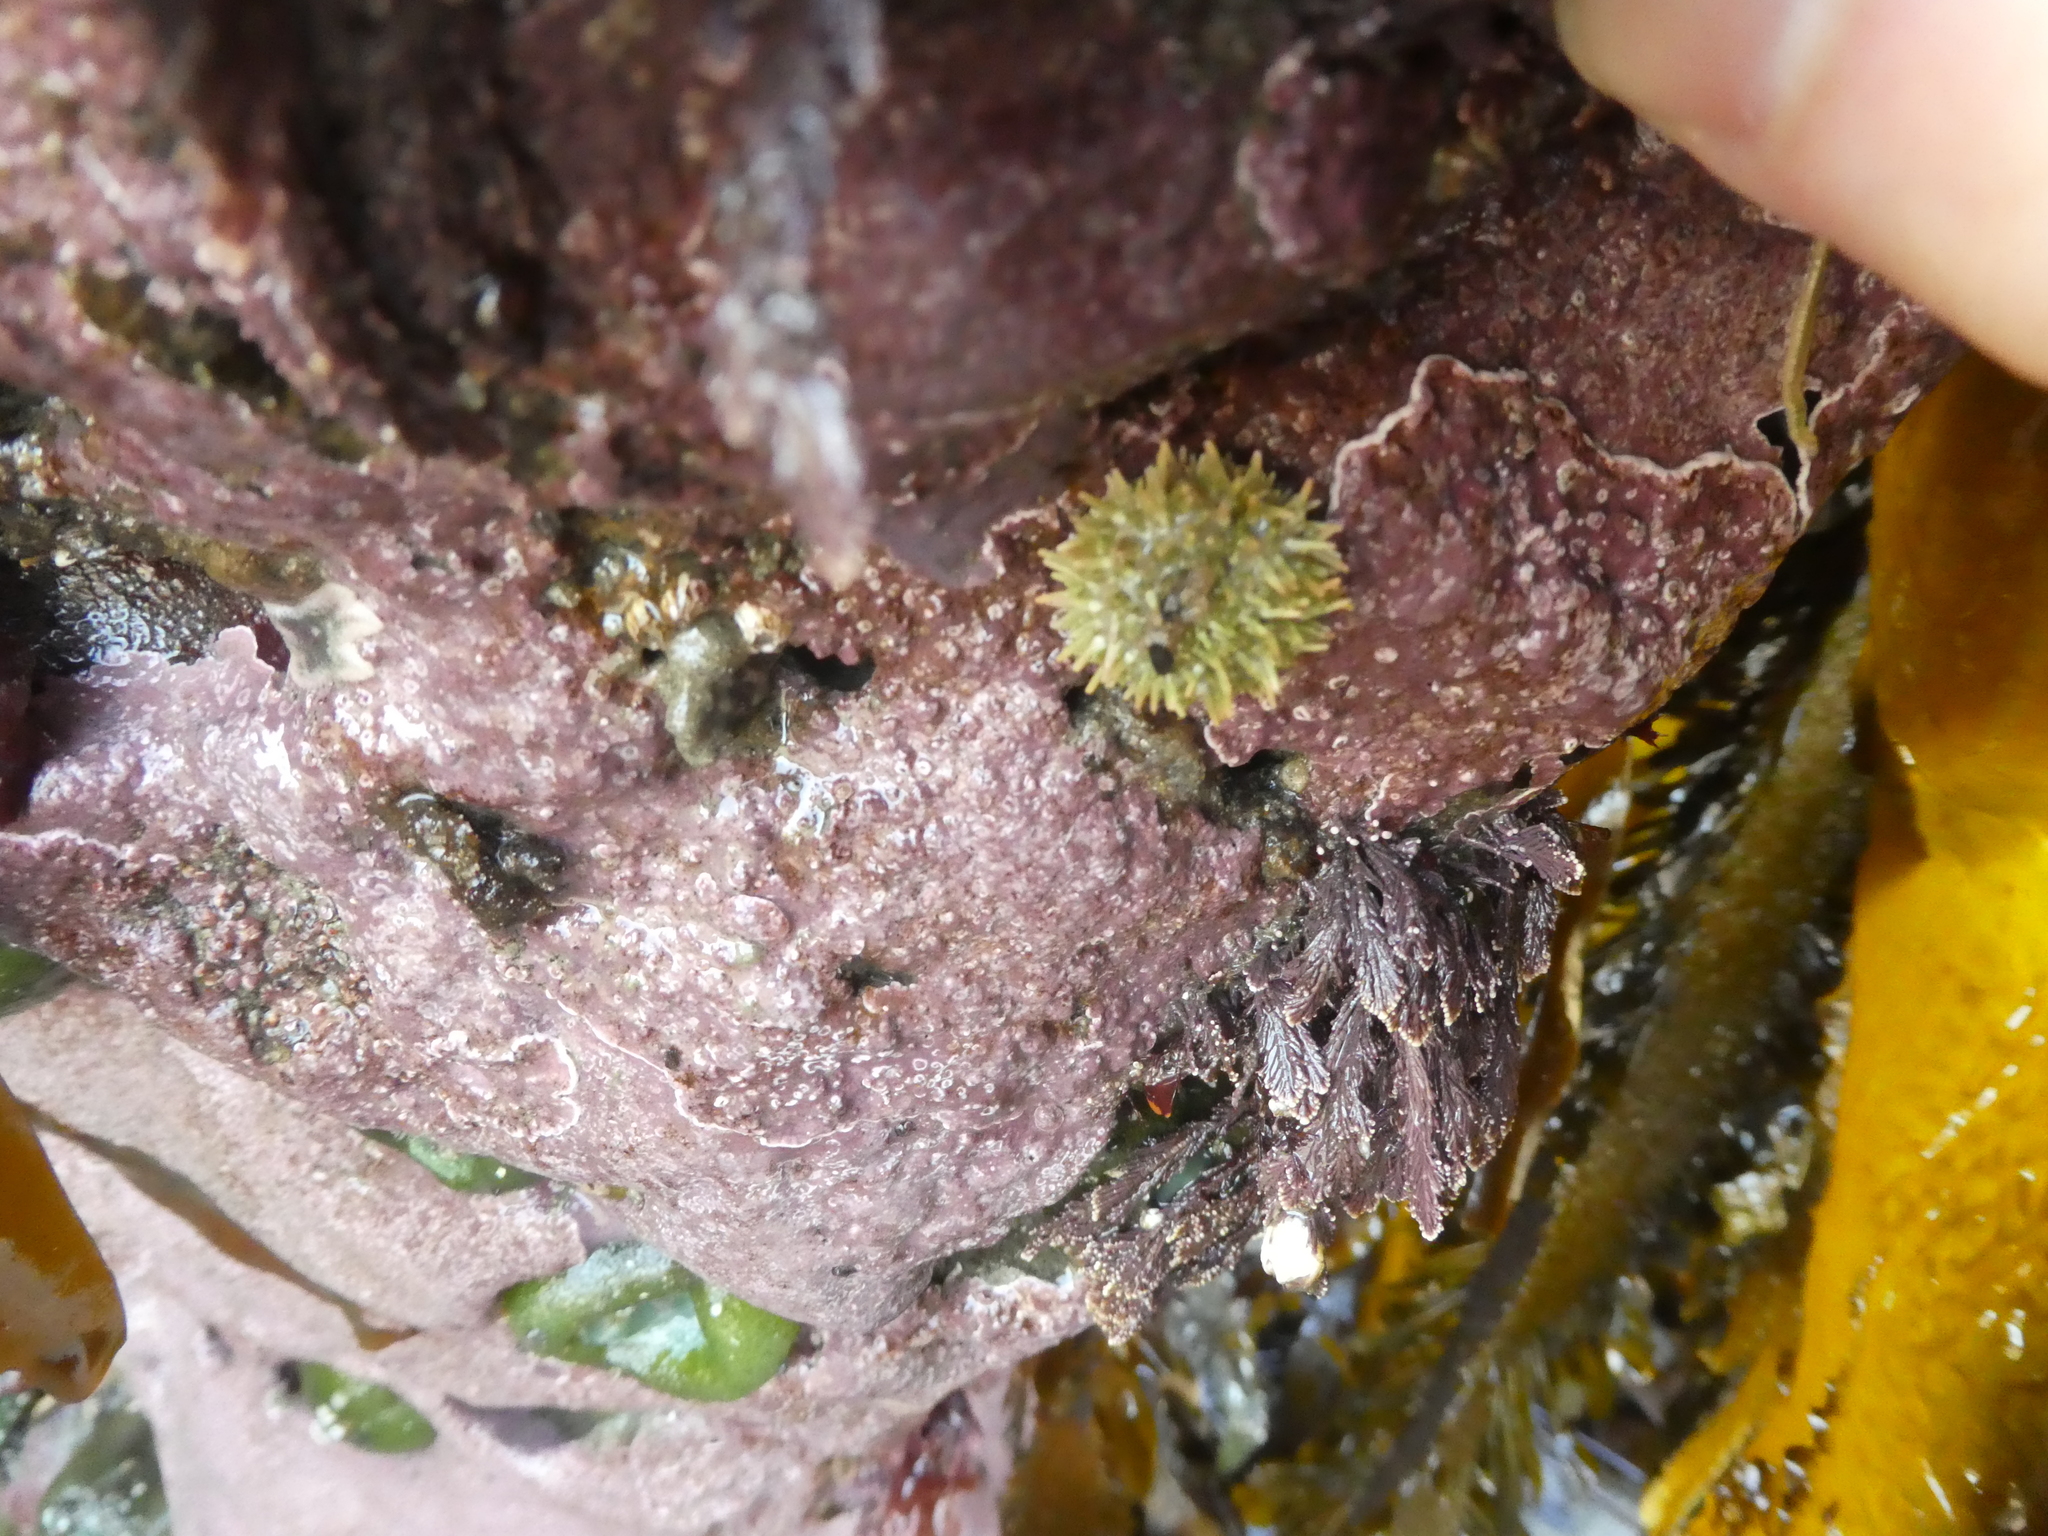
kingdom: Animalia
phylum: Echinodermata
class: Echinoidea
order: Camarodonta
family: Strongylocentrotidae
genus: Strongylocentrotus
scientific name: Strongylocentrotus purpuratus
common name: Purple sea urchin
